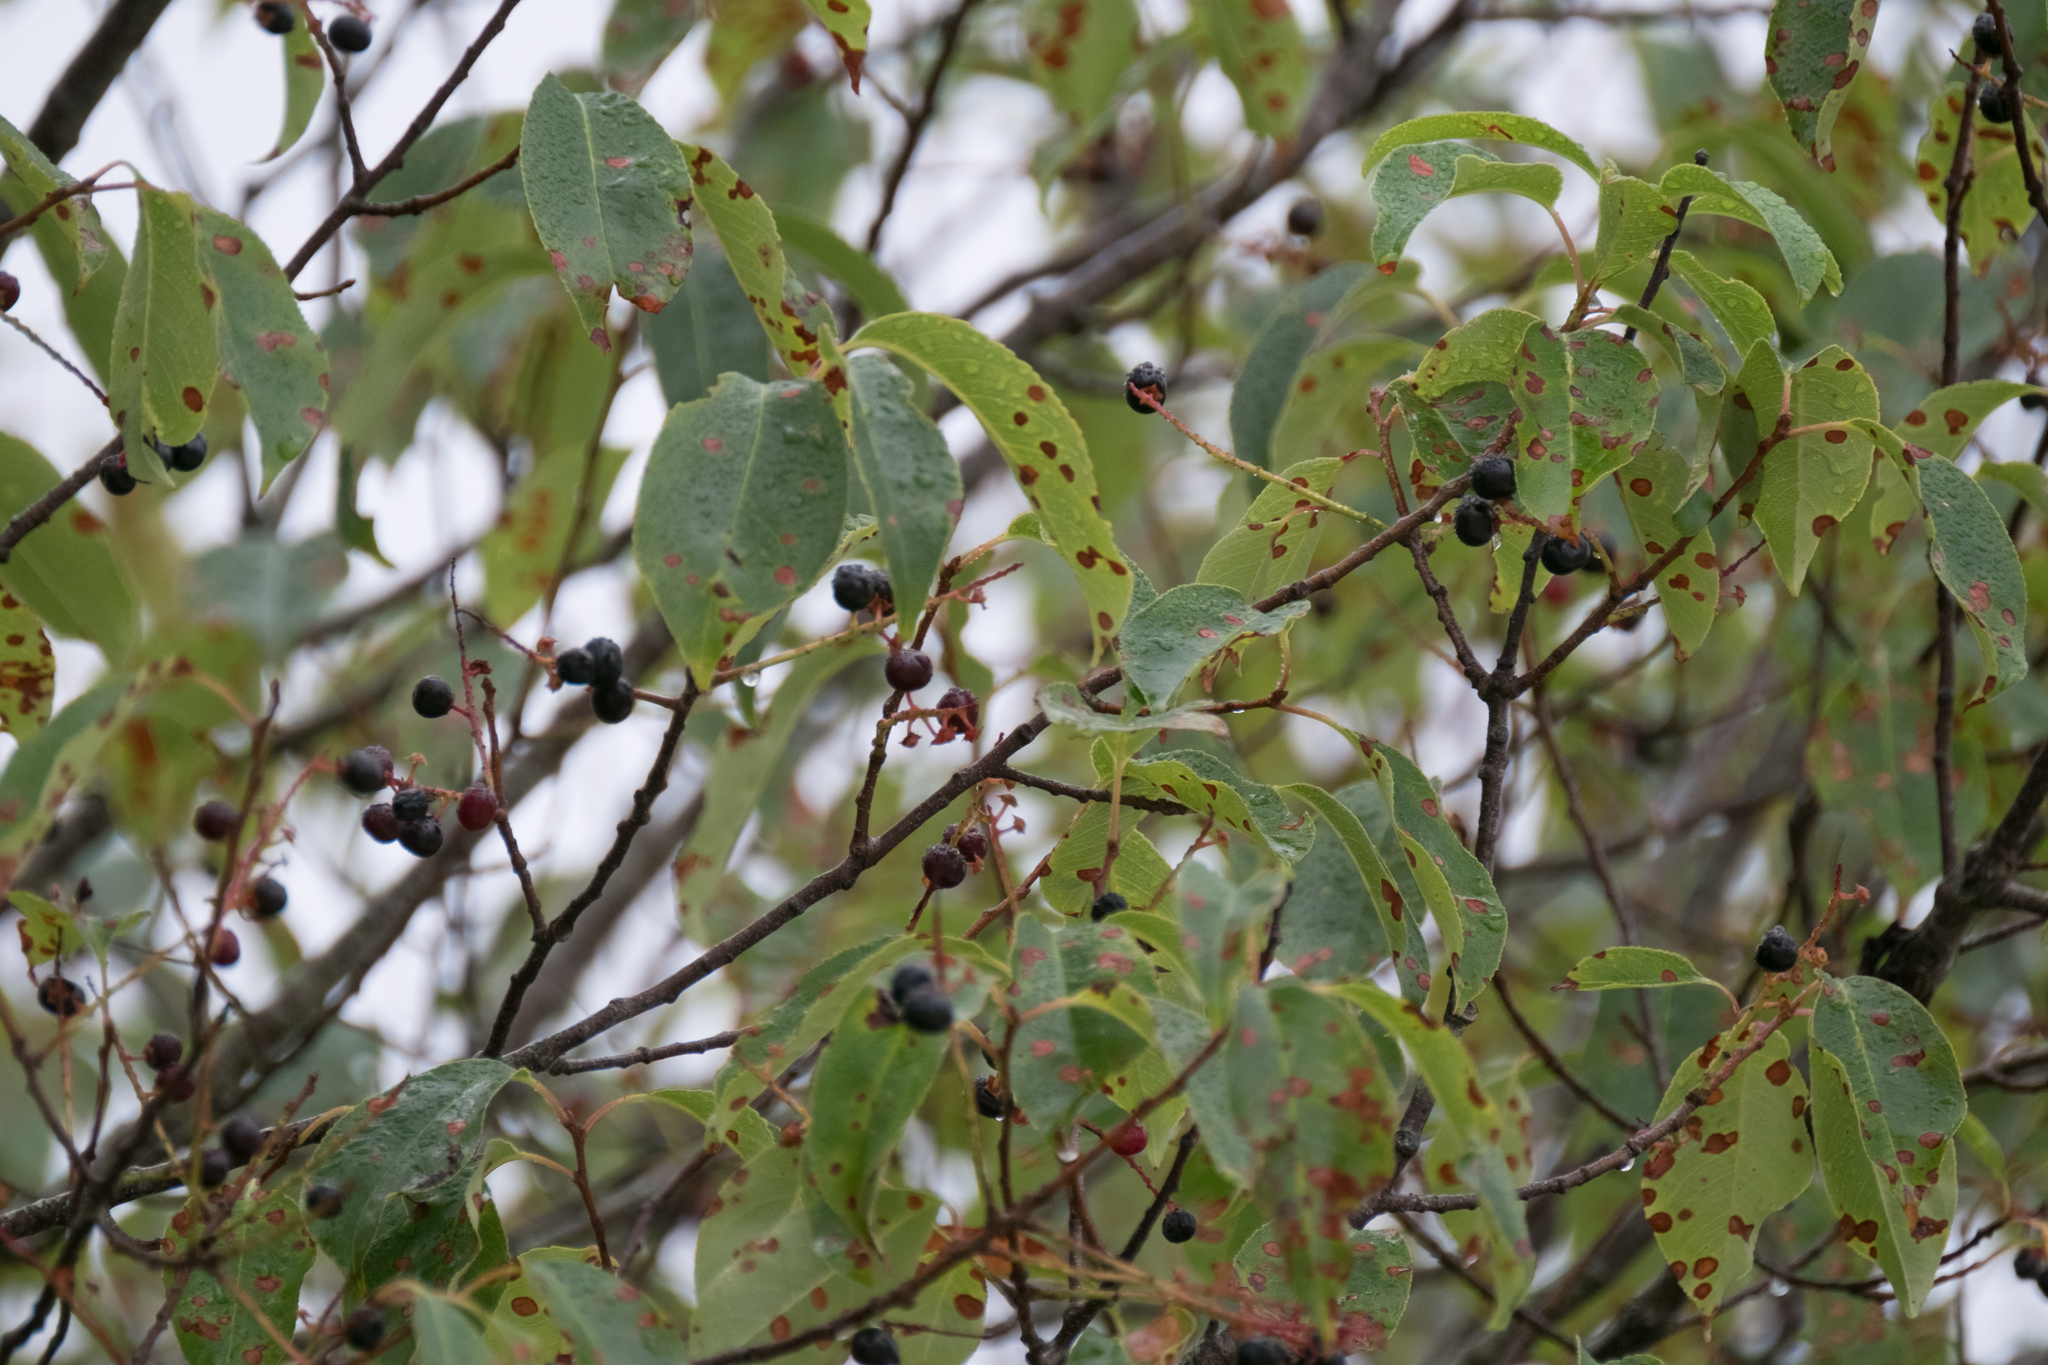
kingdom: Plantae
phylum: Tracheophyta
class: Magnoliopsida
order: Rosales
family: Rosaceae
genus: Prunus
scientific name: Prunus serotina
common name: Black cherry
